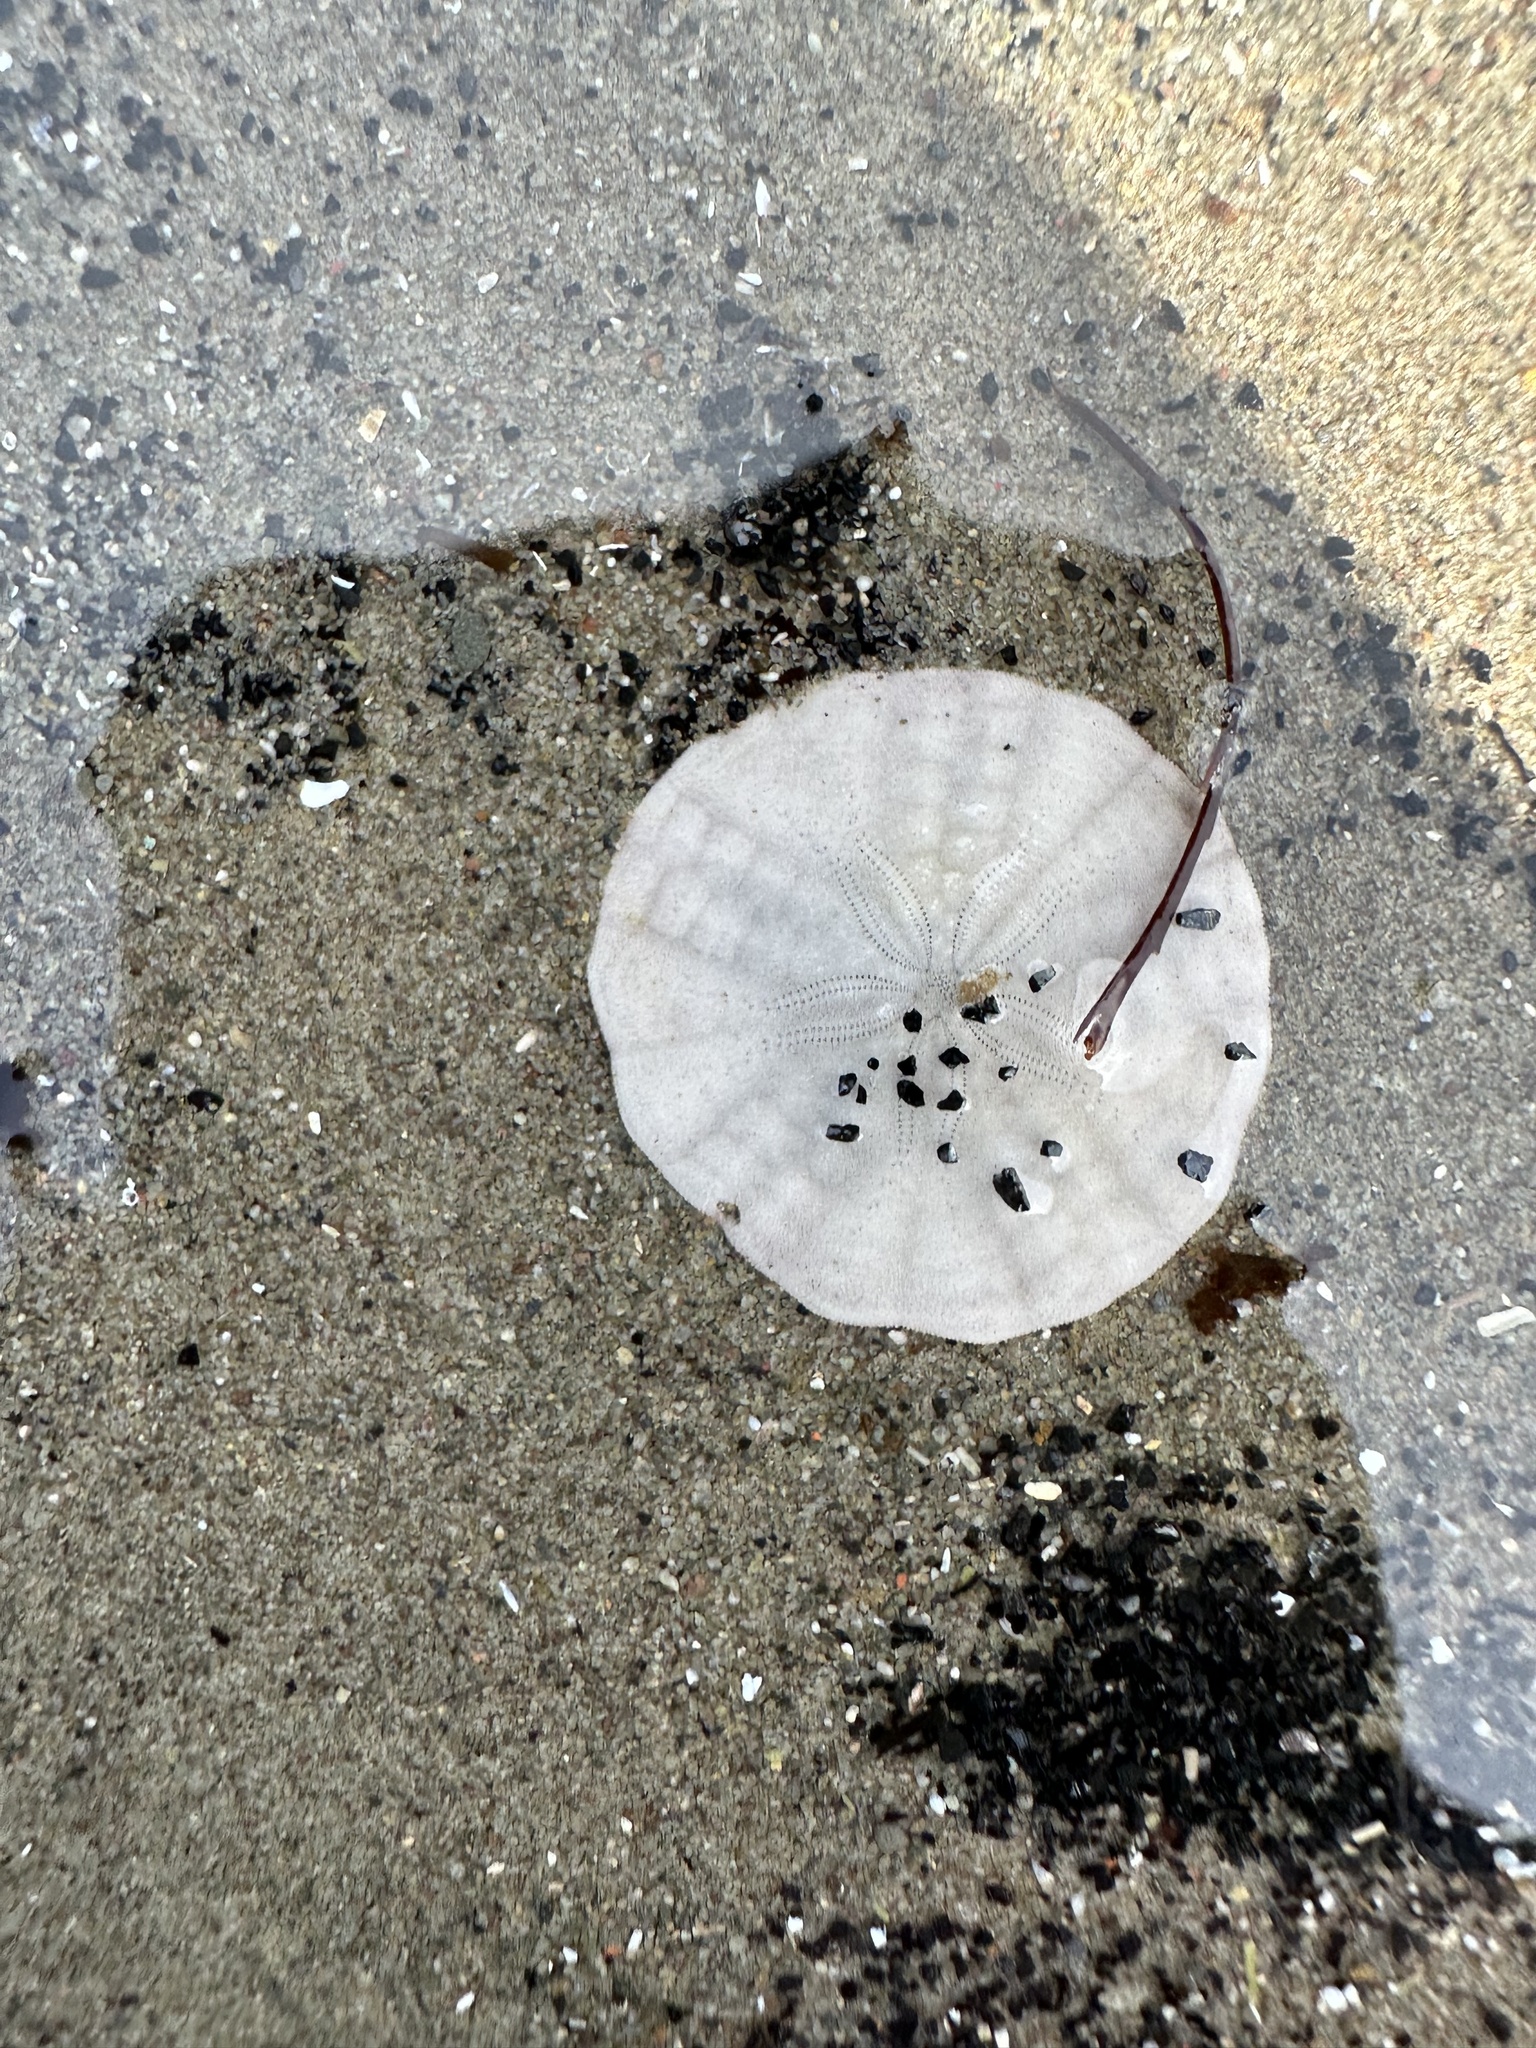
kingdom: Animalia
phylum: Echinodermata
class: Echinoidea
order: Echinolampadacea
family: Echinarachniidae
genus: Echinarachnius
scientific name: Echinarachnius parma
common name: Common sand dollar
